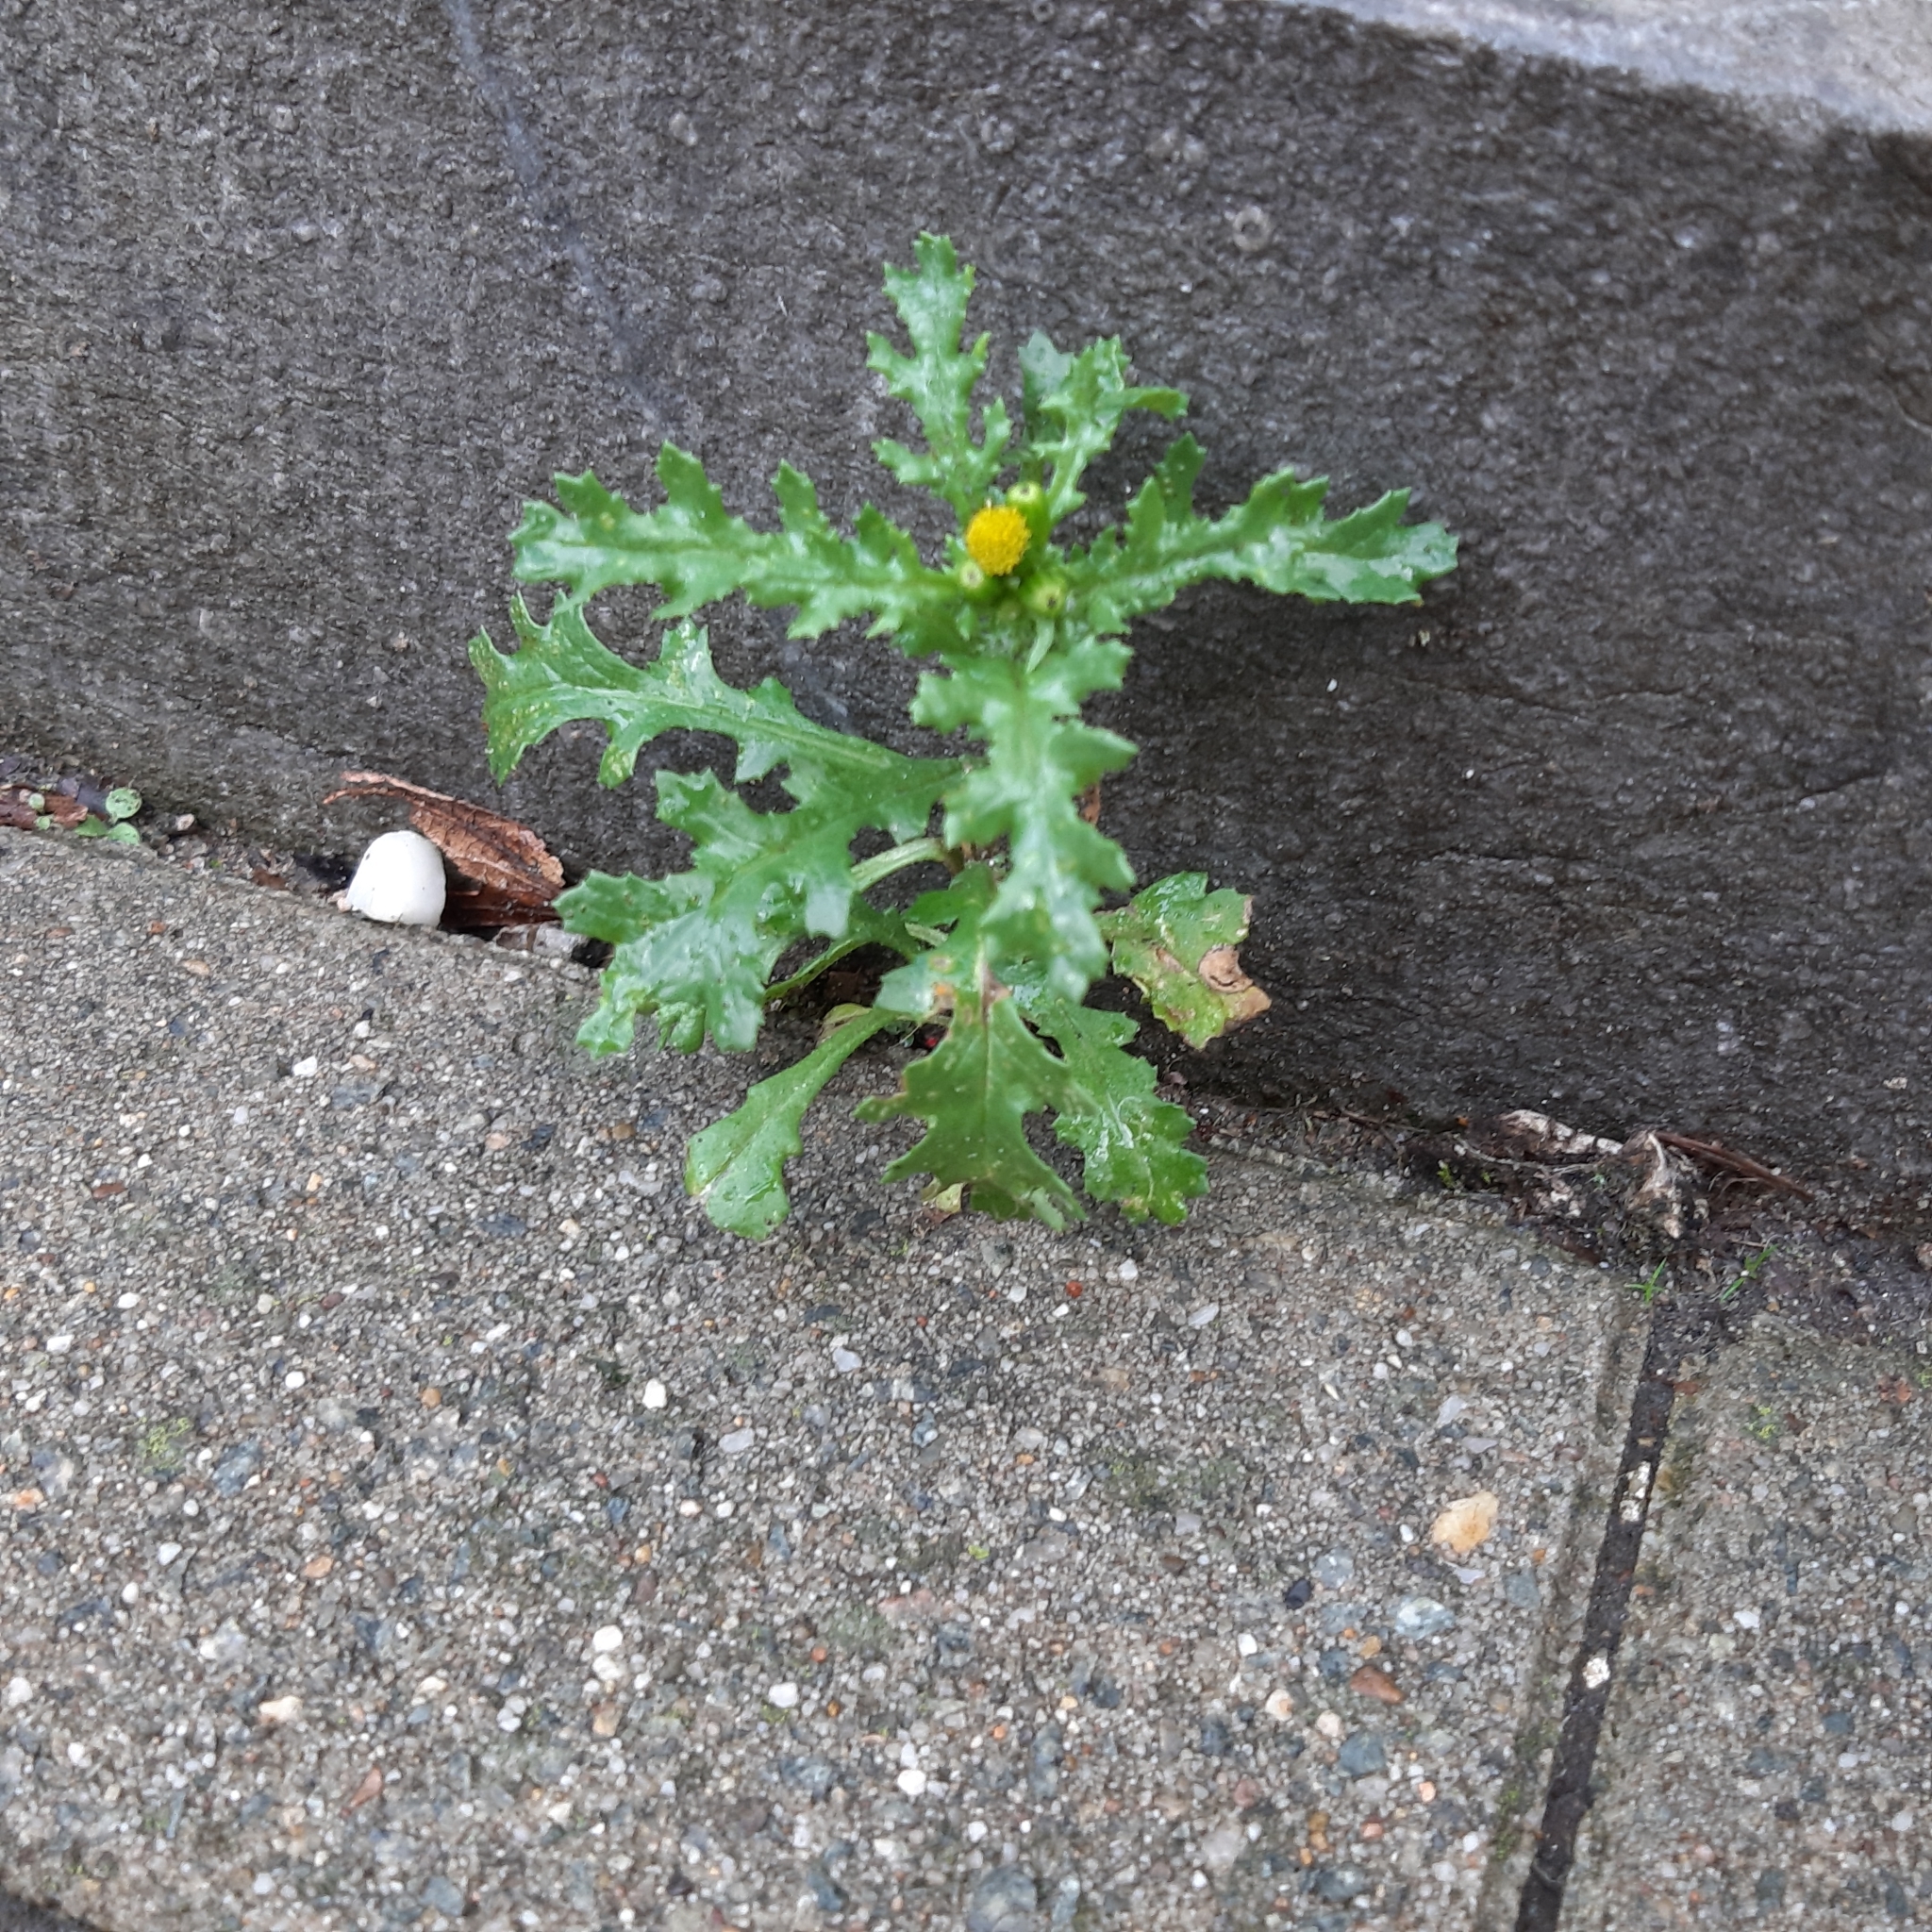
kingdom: Plantae
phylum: Tracheophyta
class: Magnoliopsida
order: Asterales
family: Asteraceae
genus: Senecio
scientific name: Senecio vulgaris
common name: Old-man-in-the-spring
